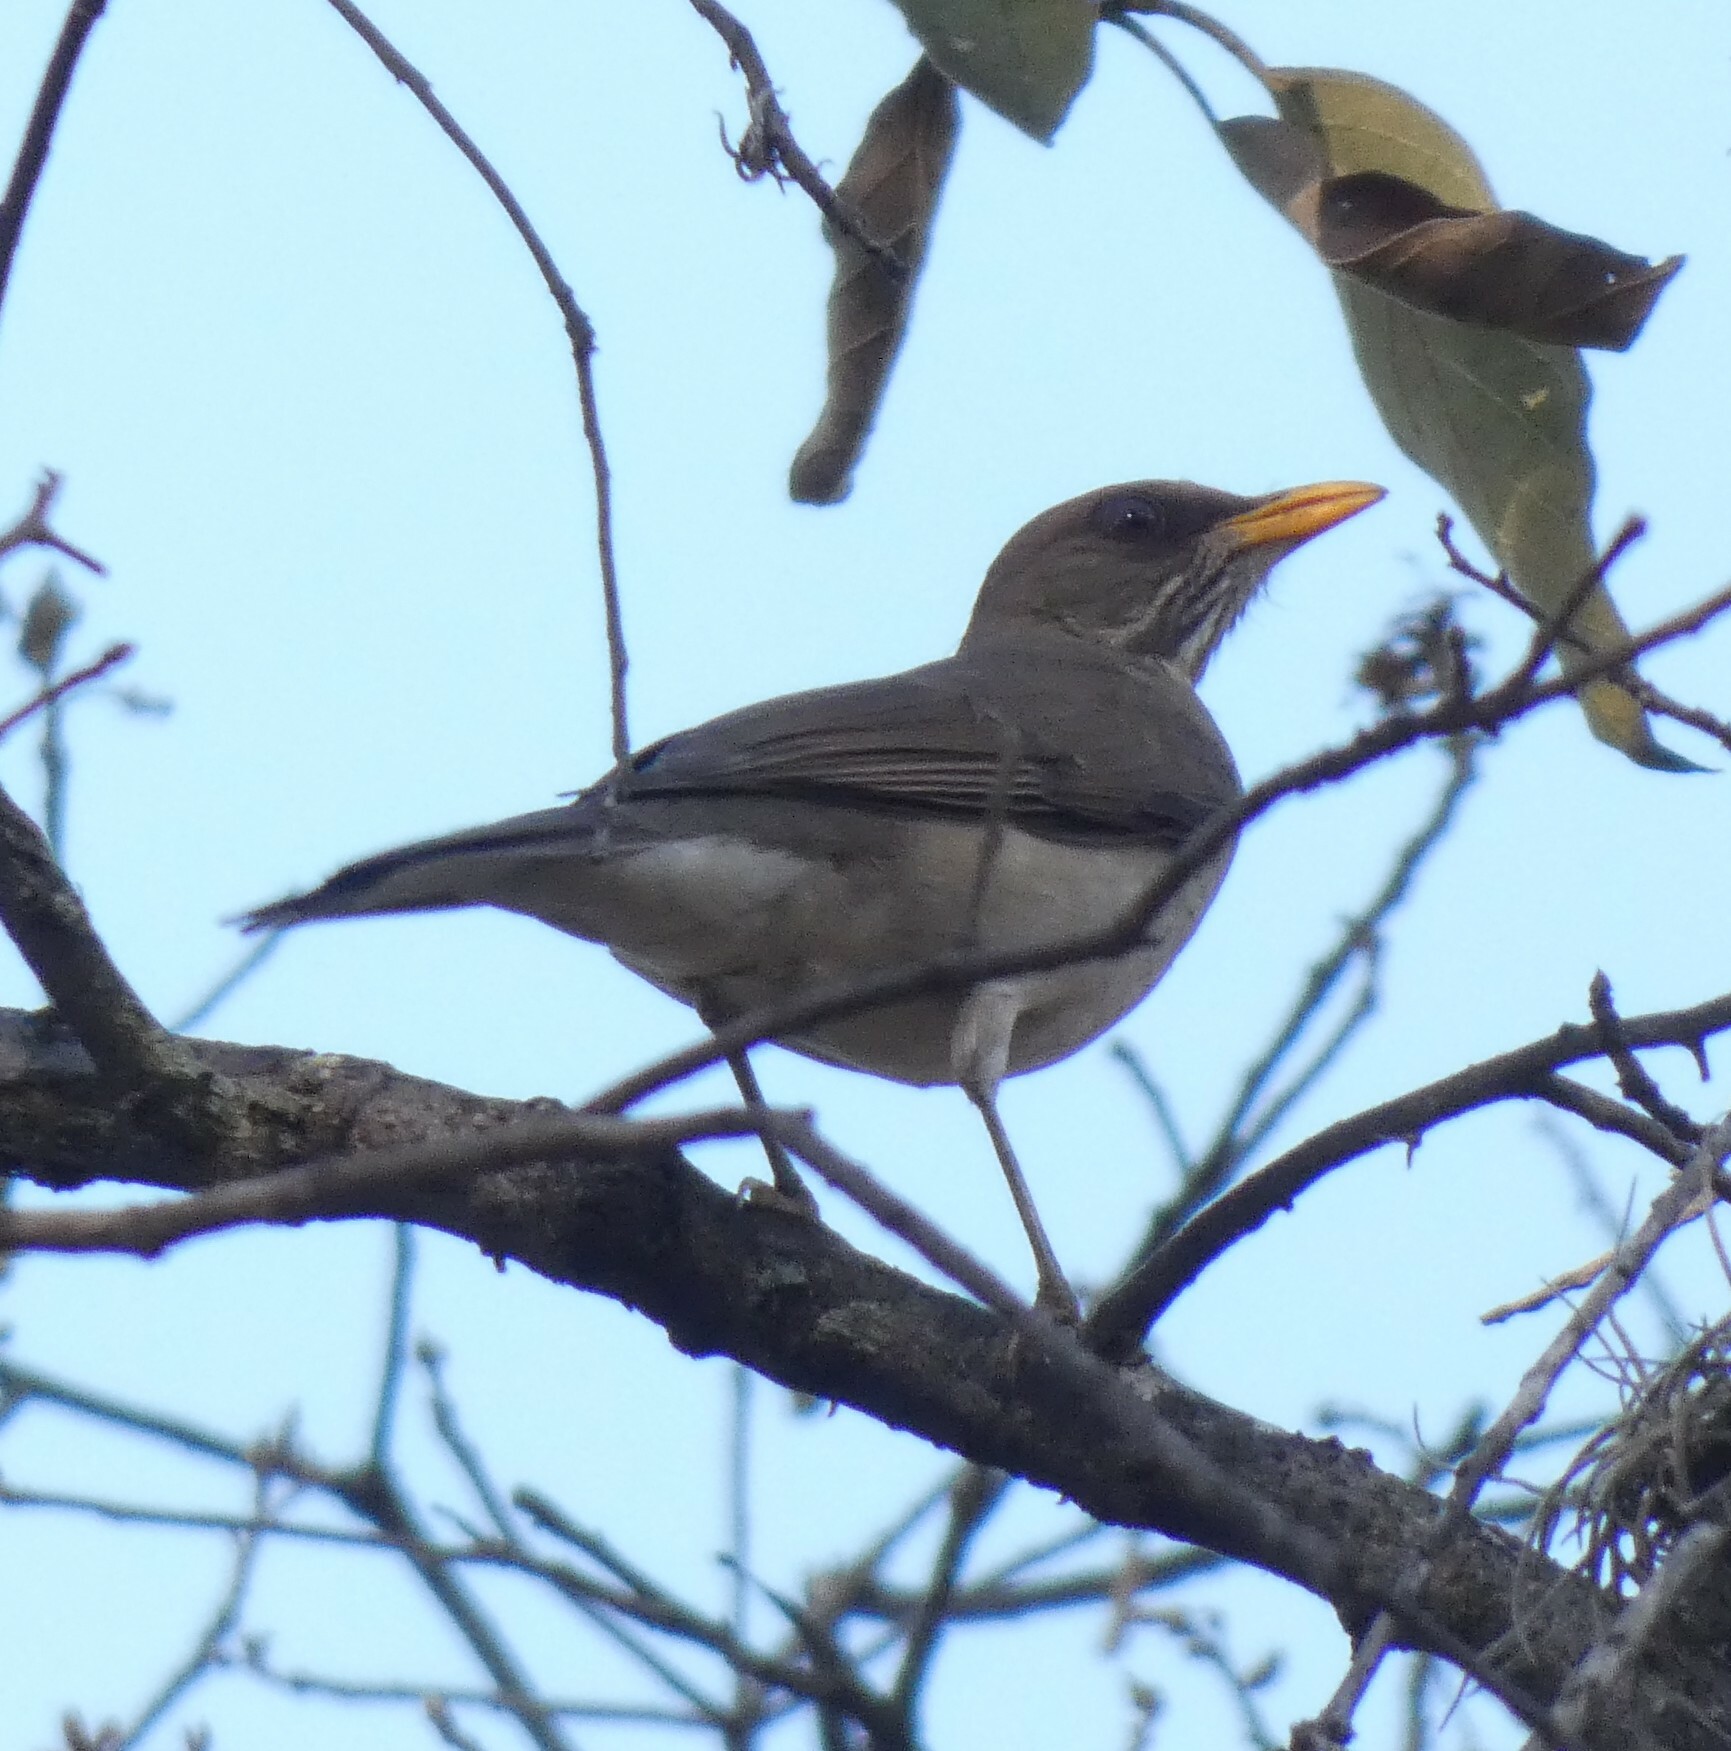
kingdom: Animalia
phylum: Chordata
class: Aves
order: Passeriformes
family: Turdidae
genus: Turdus
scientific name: Turdus amaurochalinus
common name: Creamy-bellied thrush
